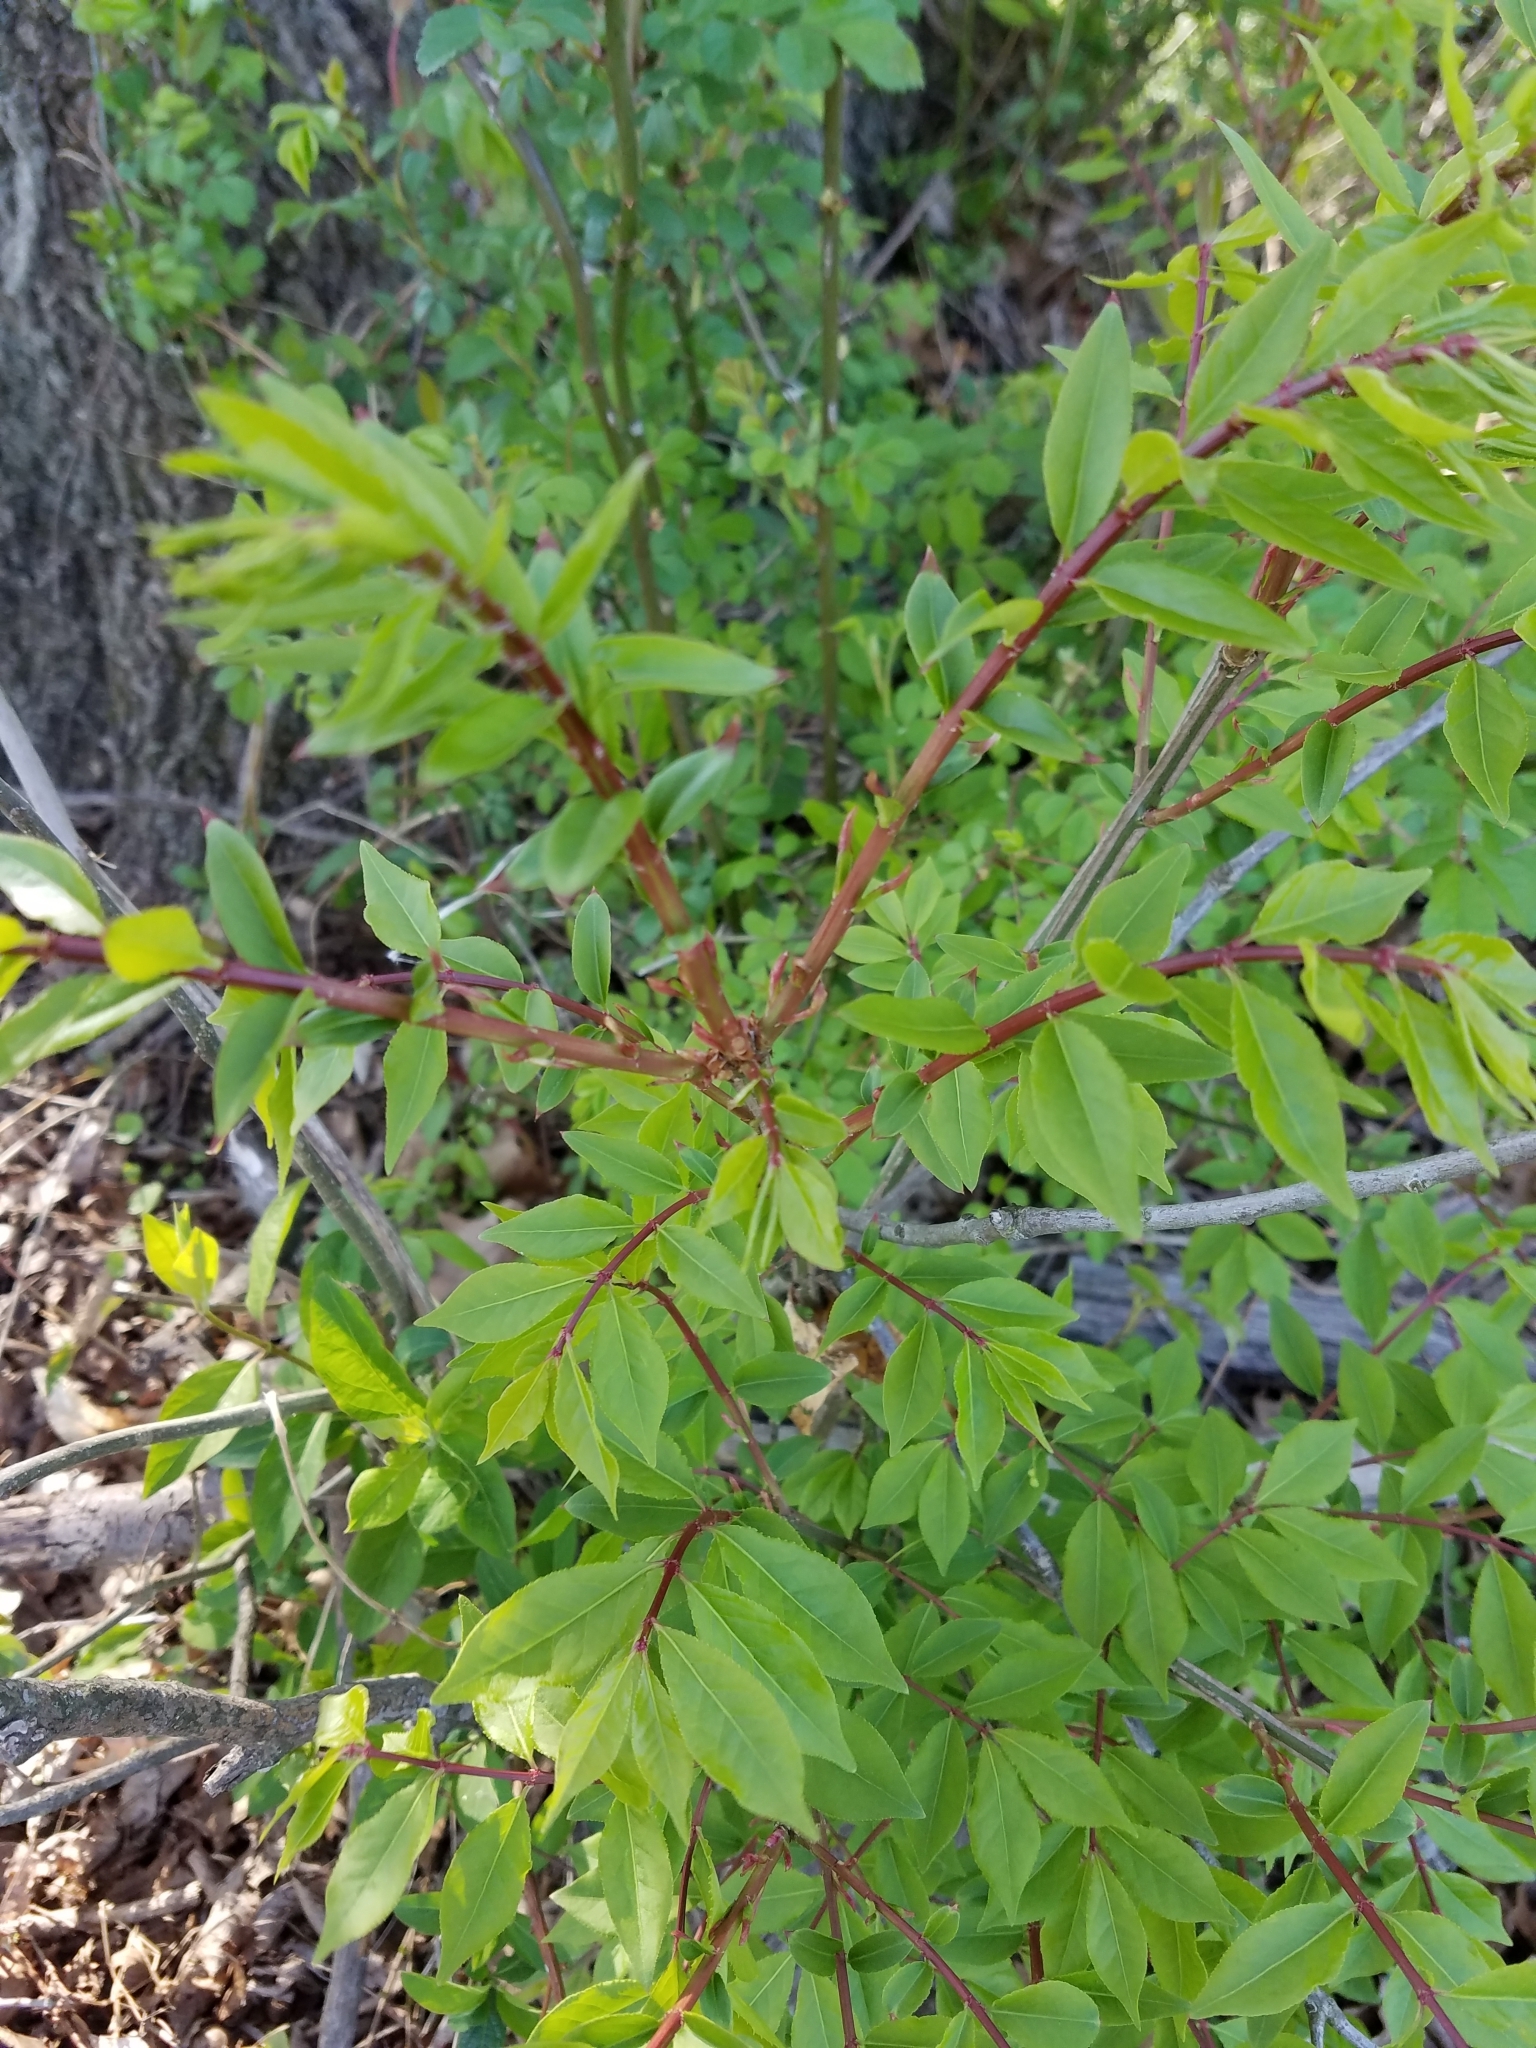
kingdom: Plantae
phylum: Tracheophyta
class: Magnoliopsida
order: Celastrales
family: Celastraceae
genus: Euonymus
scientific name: Euonymus alatus
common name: Winged euonymus
